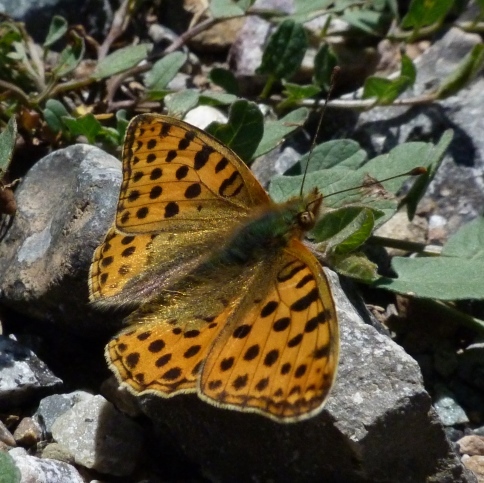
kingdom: Animalia
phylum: Arthropoda
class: Insecta
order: Lepidoptera
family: Nymphalidae
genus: Issoria
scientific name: Issoria lathonia
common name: Queen of spain fritillary
